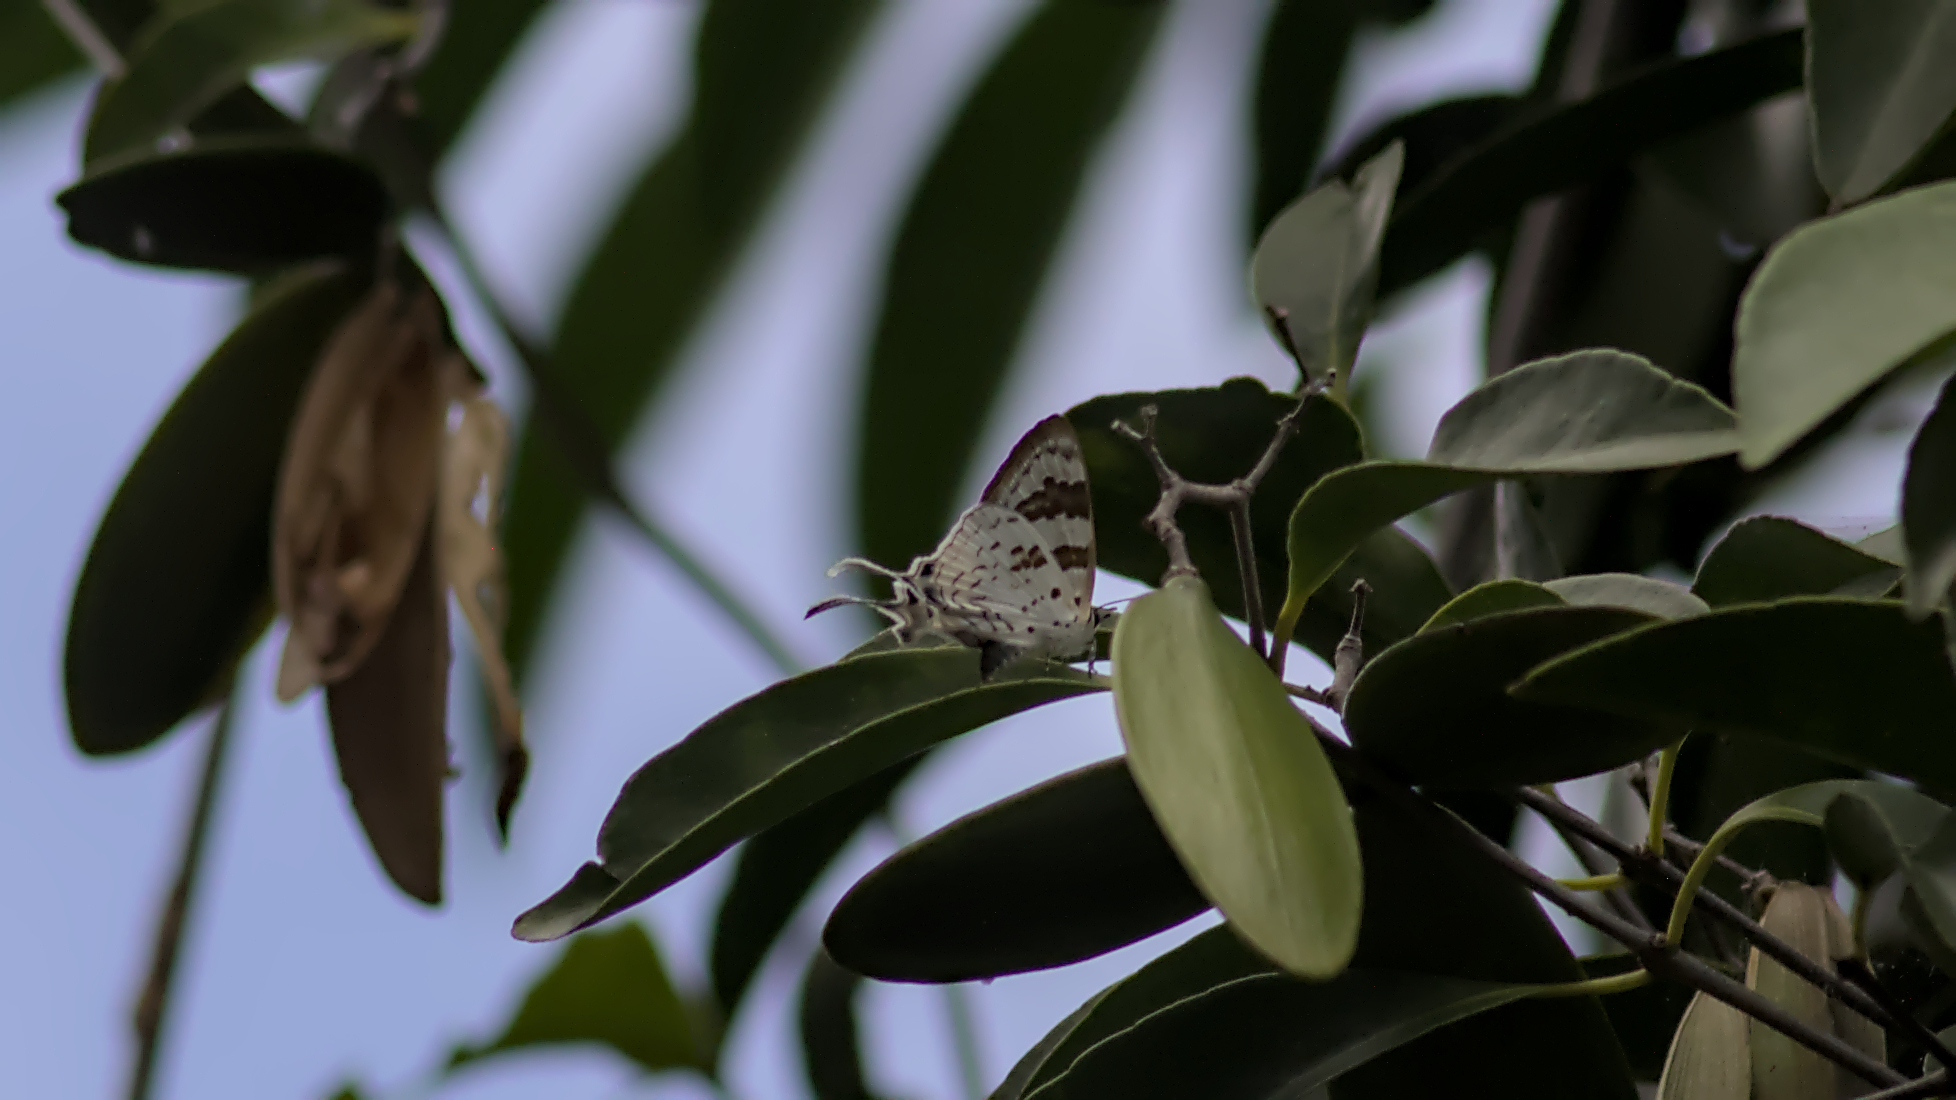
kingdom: Animalia
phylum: Arthropoda
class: Insecta
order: Lepidoptera
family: Lycaenidae
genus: Bindahara
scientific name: Bindahara phocides
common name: Sword-tailed flash
